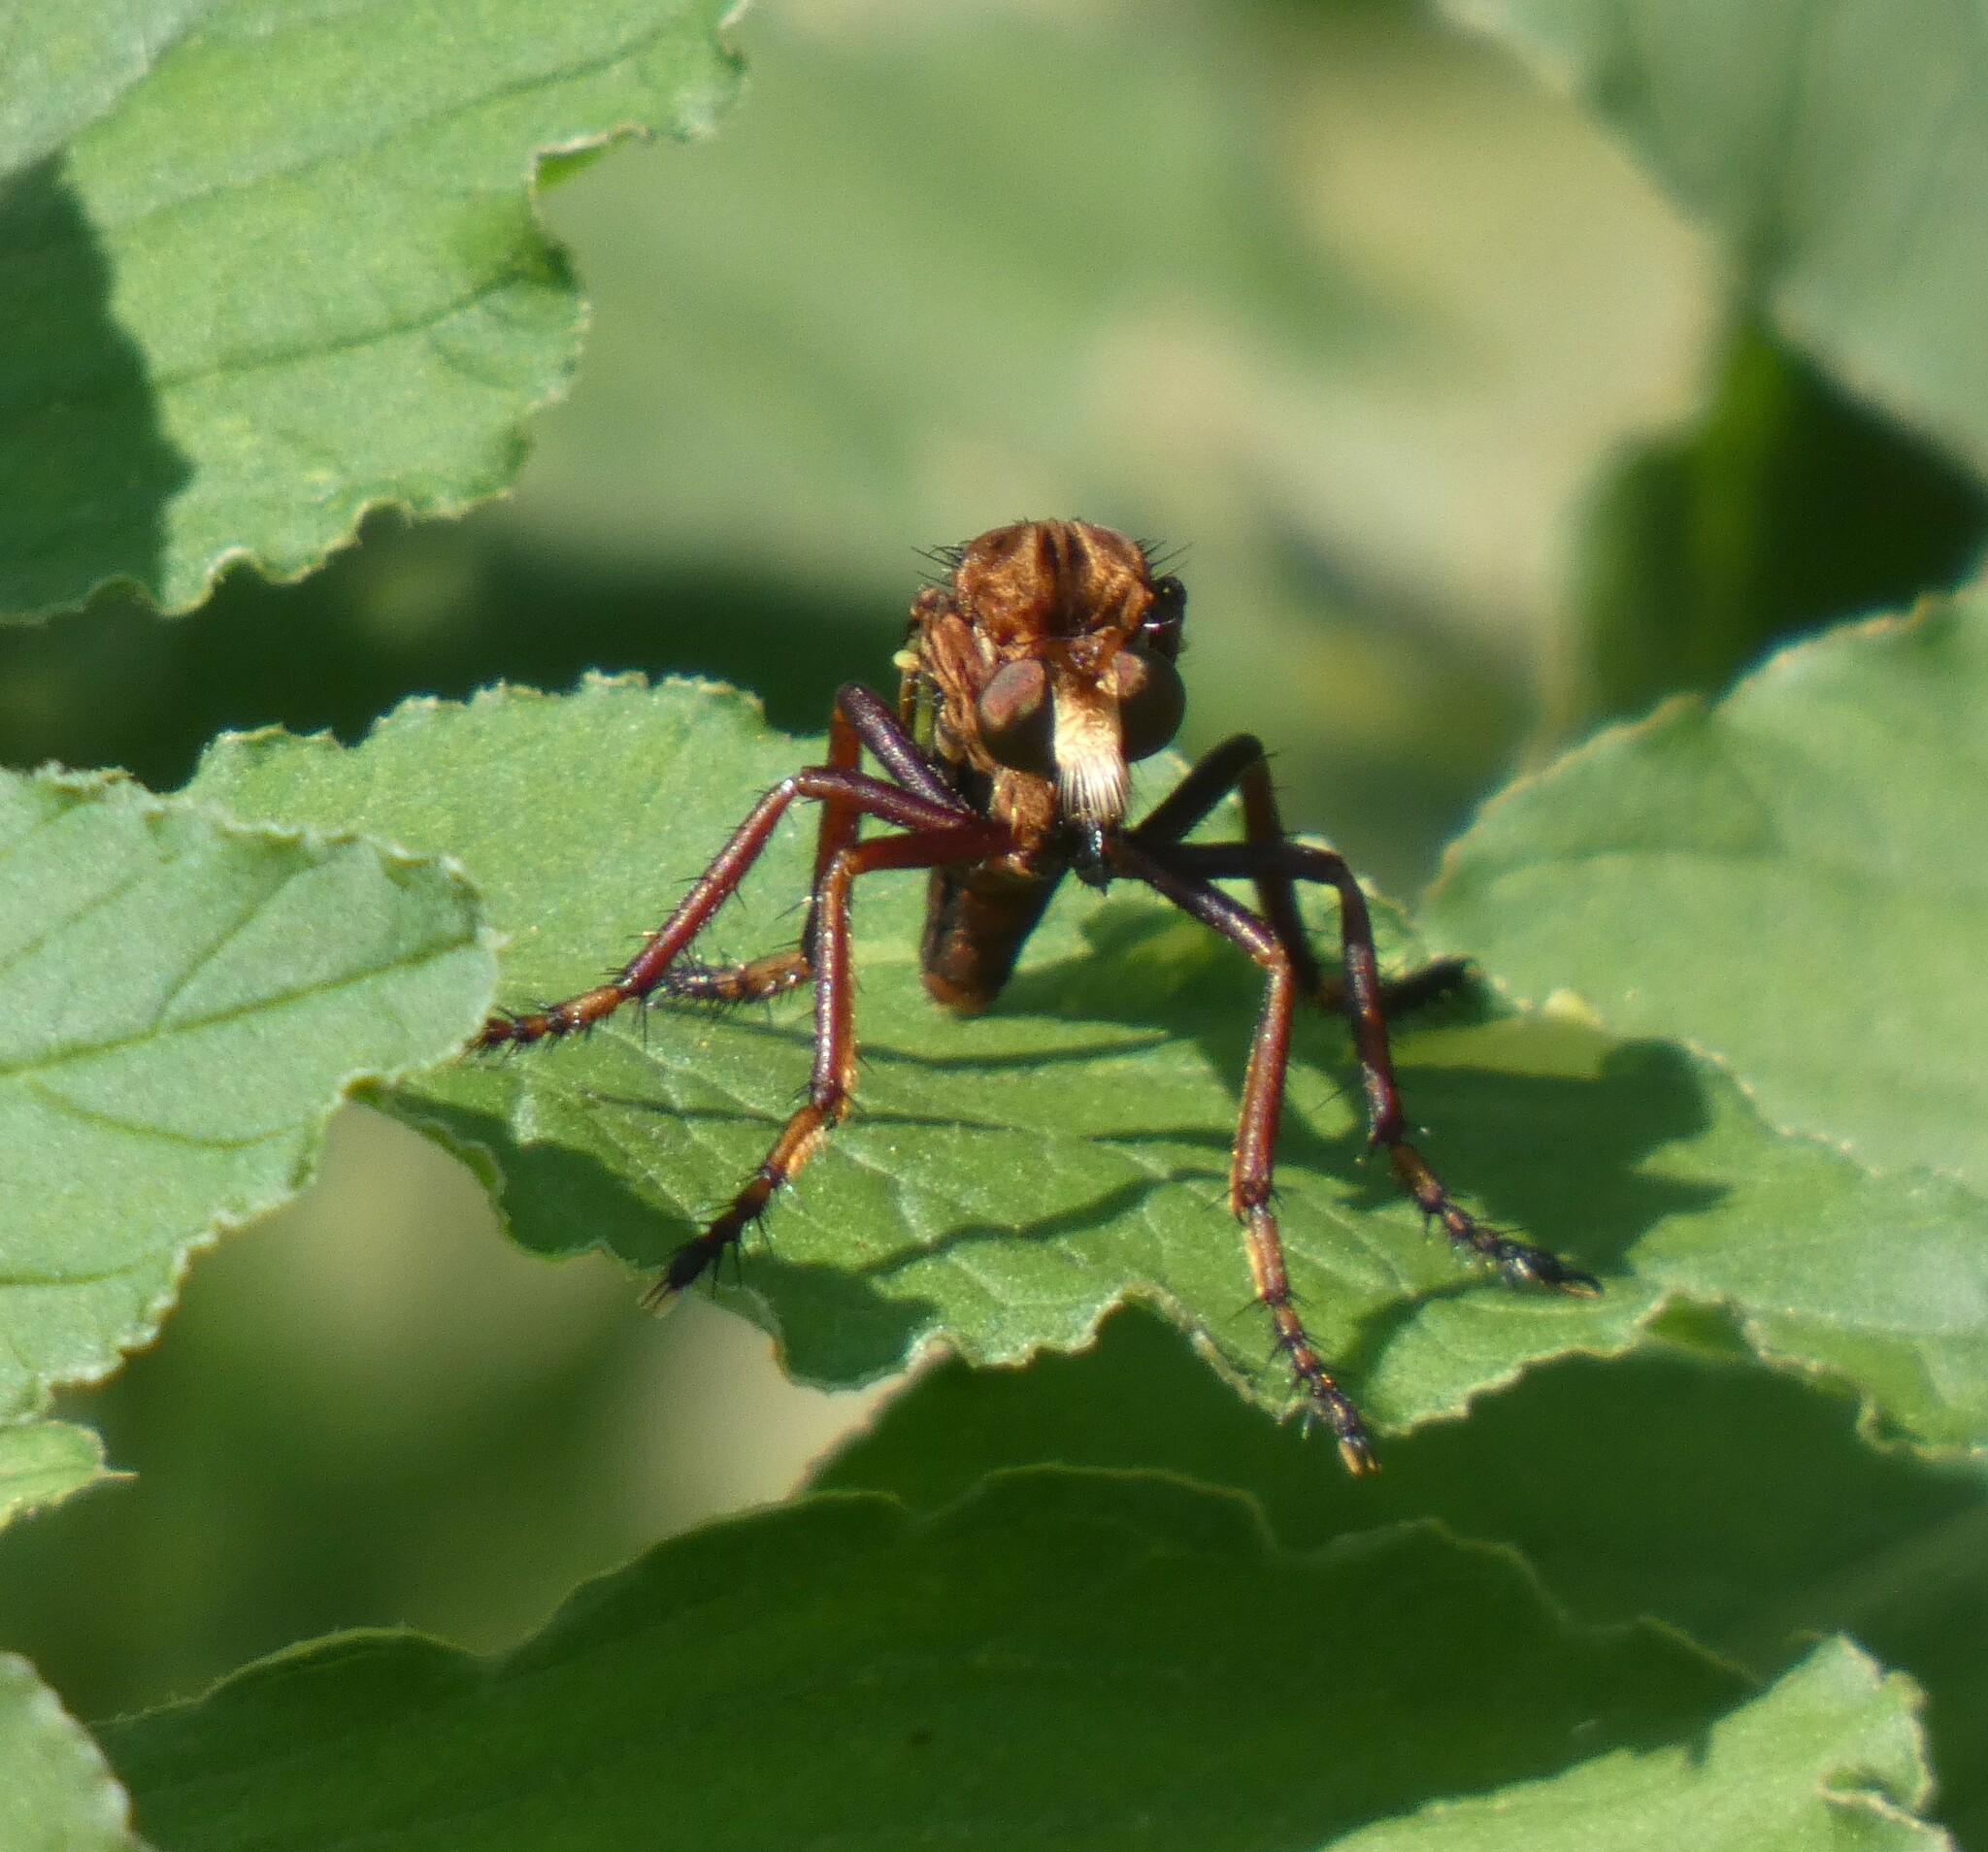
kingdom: Animalia
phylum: Arthropoda
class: Insecta
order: Diptera
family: Asilidae
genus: Diogmites
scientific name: Diogmites basalis
